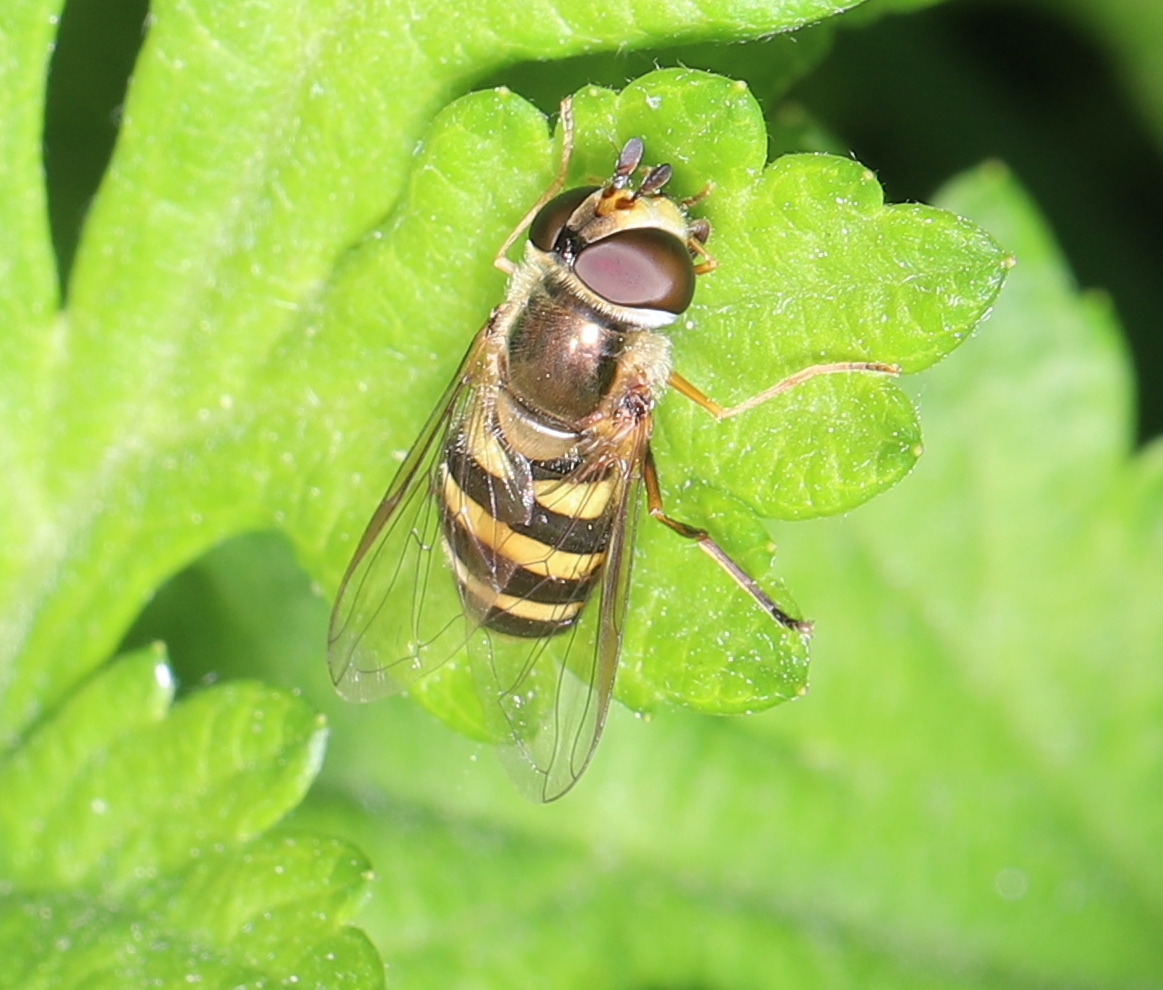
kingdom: Animalia
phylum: Arthropoda
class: Insecta
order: Diptera
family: Syrphidae
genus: Eupeodes
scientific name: Eupeodes
